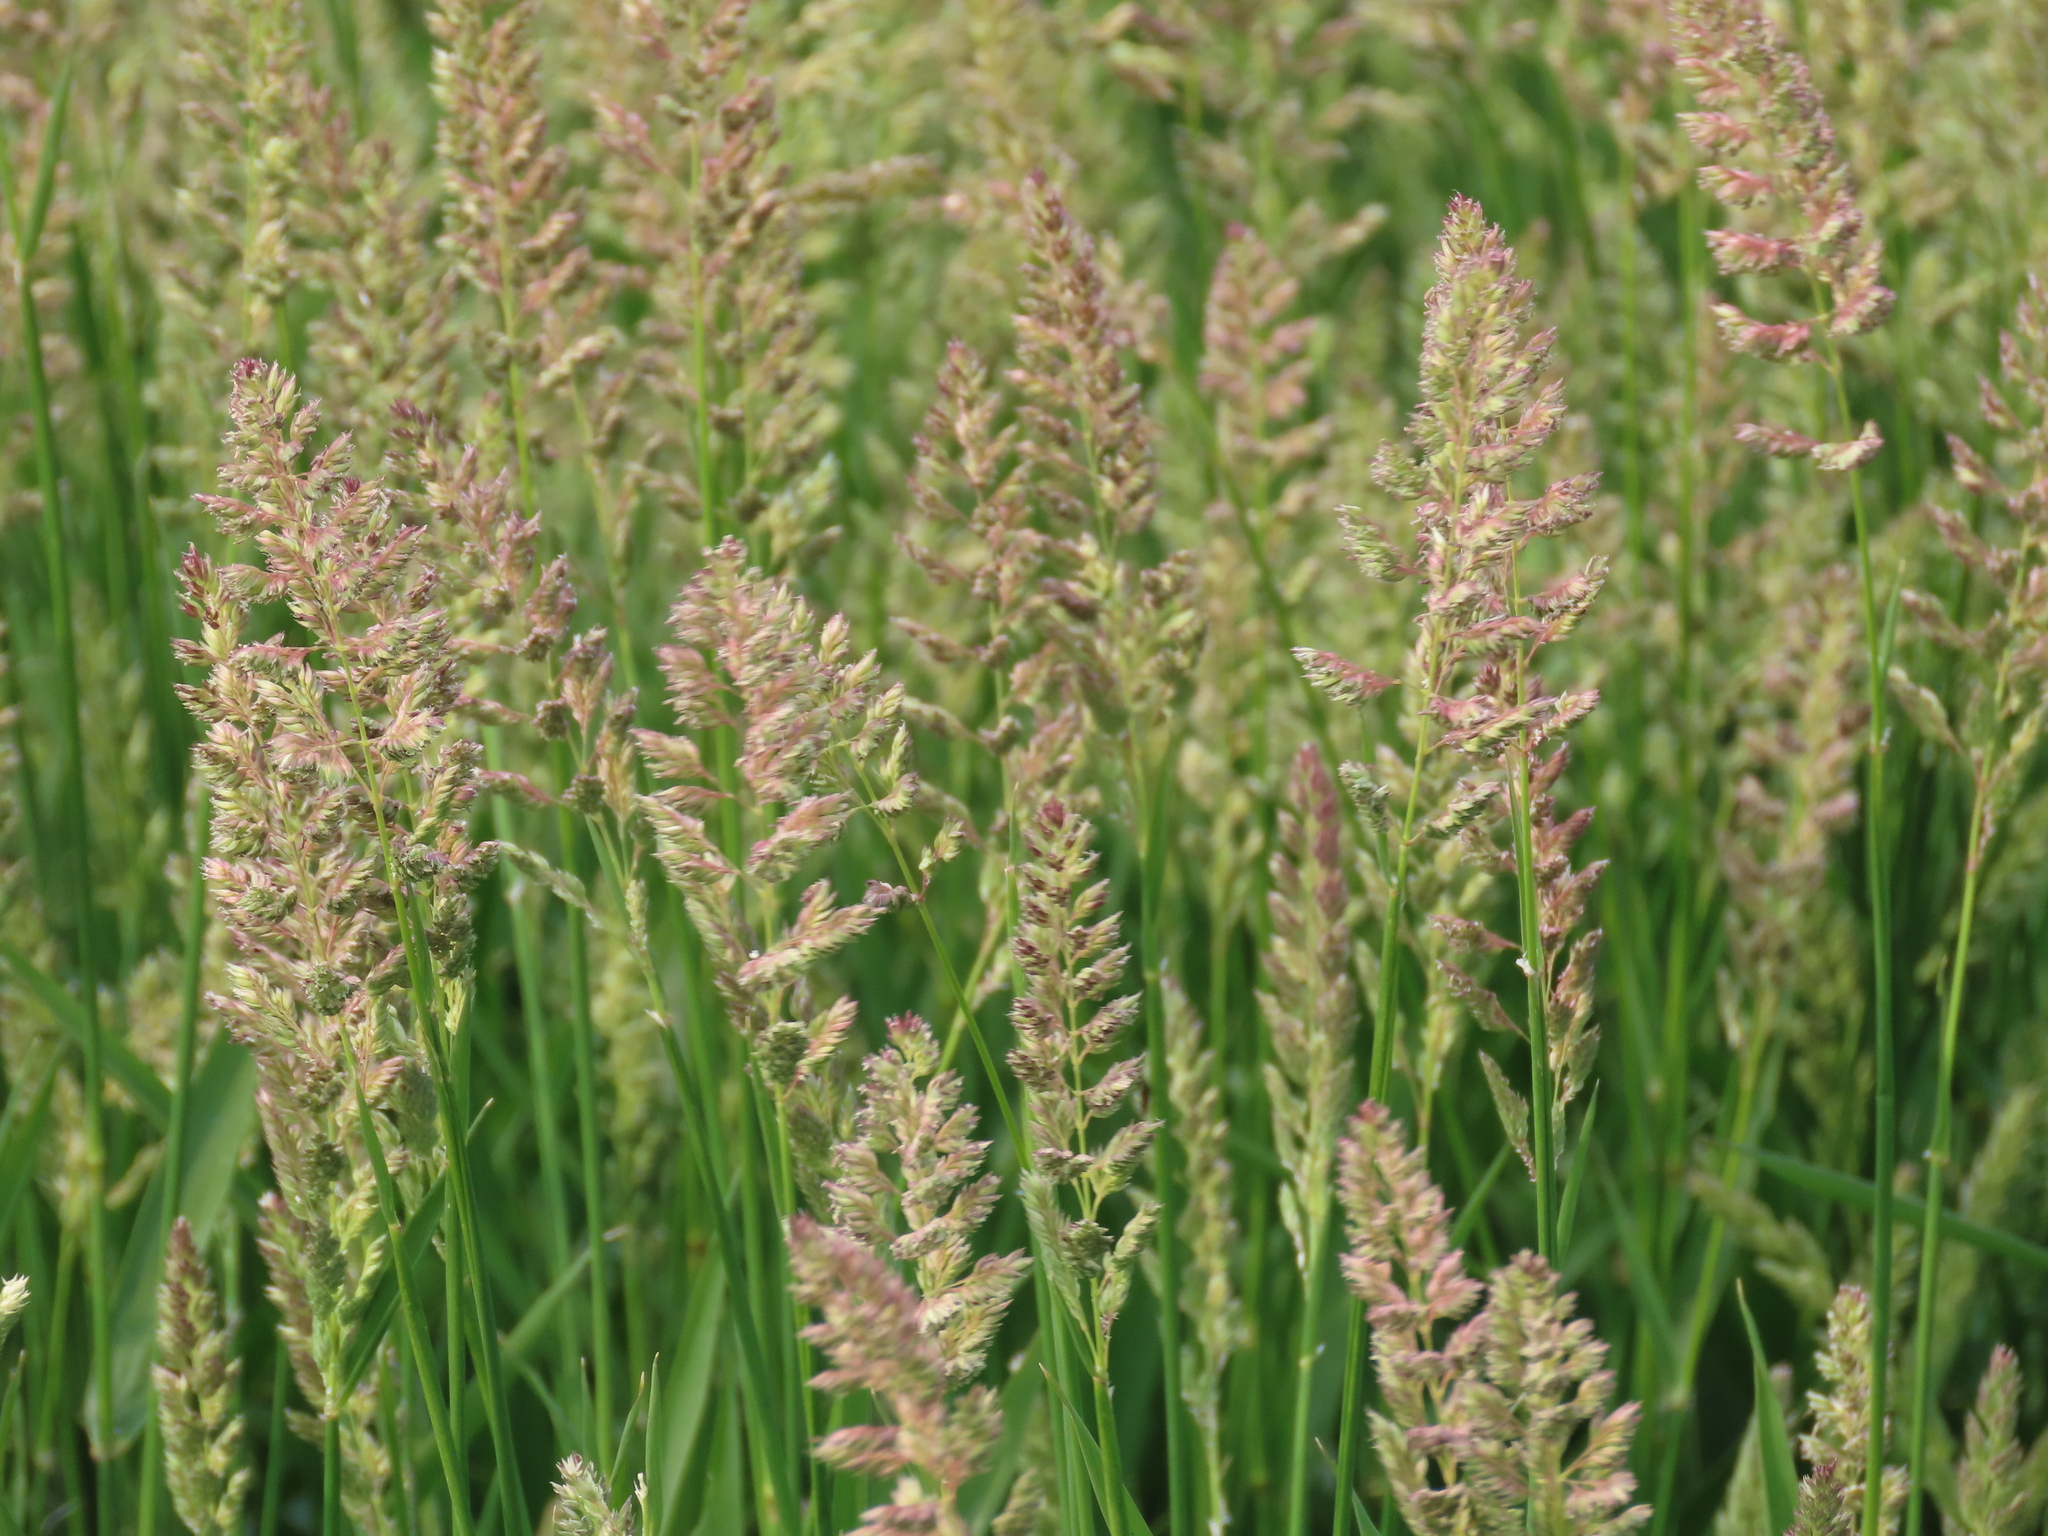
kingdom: Plantae
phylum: Tracheophyta
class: Liliopsida
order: Poales
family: Poaceae
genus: Phalaris
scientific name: Phalaris arundinacea
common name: Reed canary-grass
